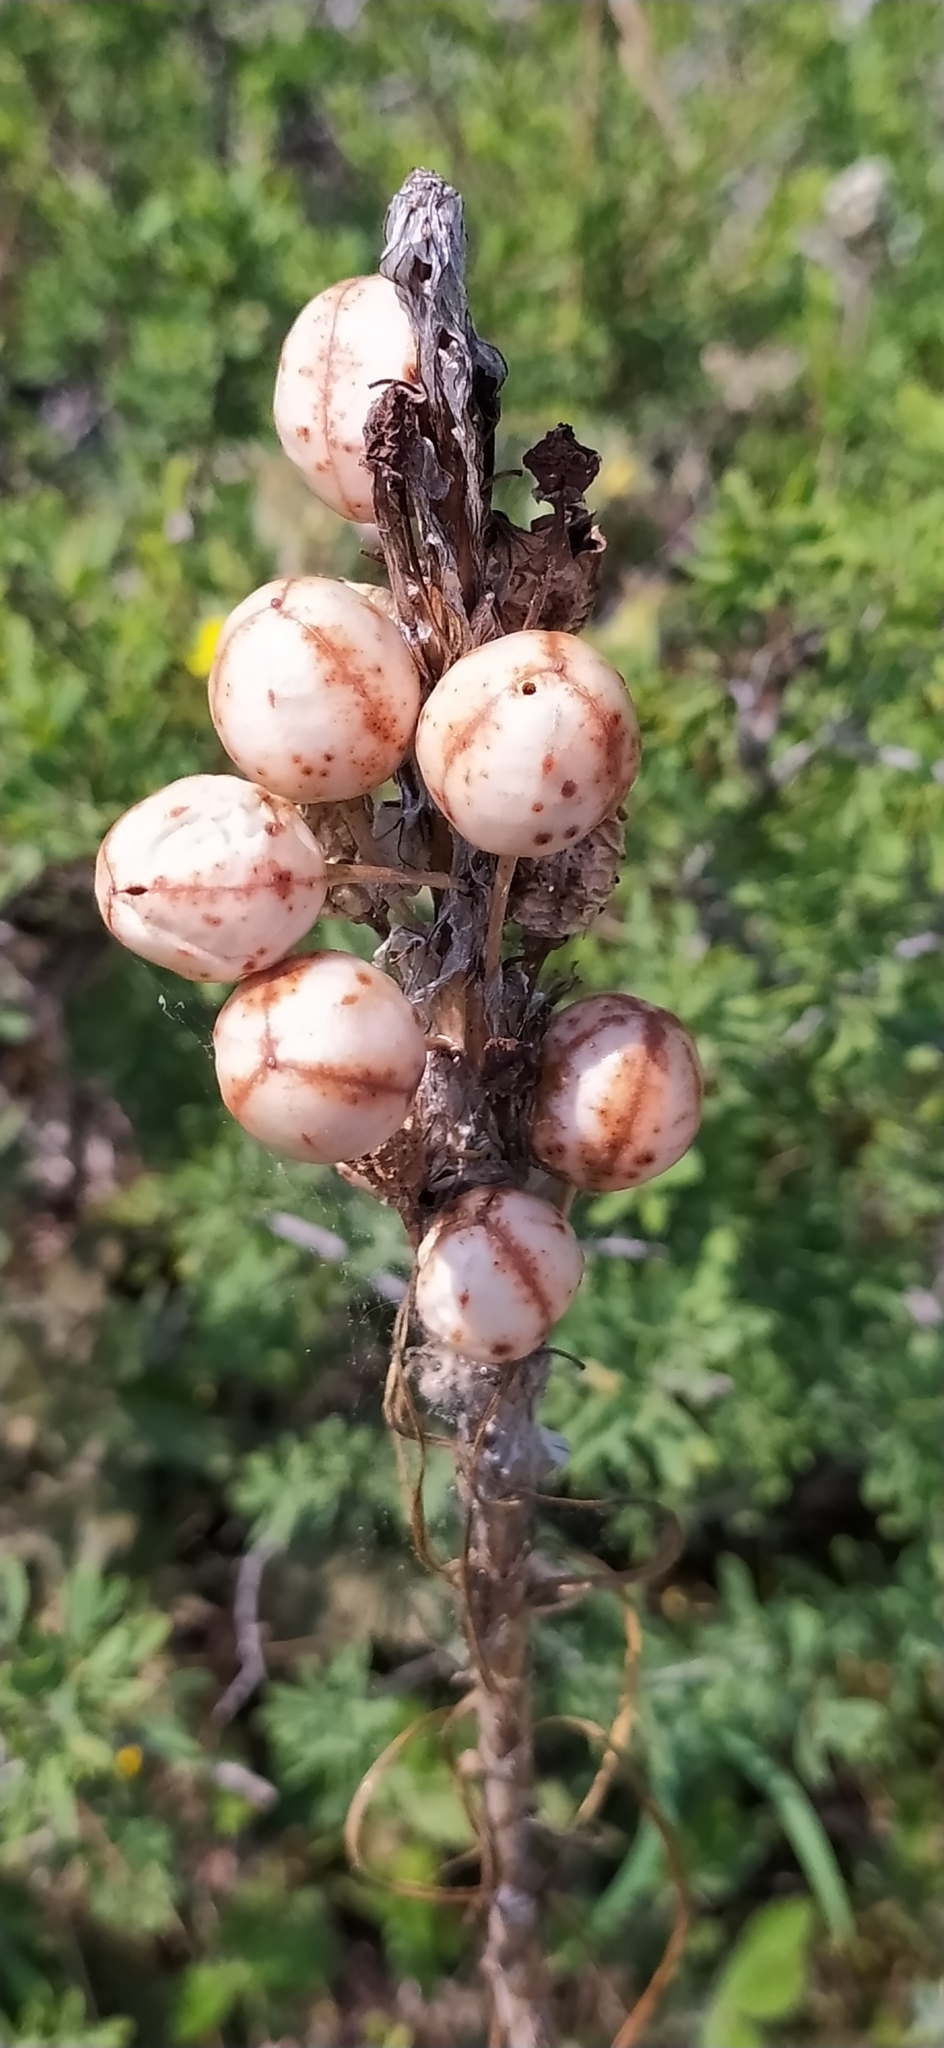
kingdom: Plantae
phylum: Tracheophyta
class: Liliopsida
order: Asparagales
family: Asphodelaceae
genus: Asphodeline
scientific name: Asphodeline lutea
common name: Yellow asphodel
